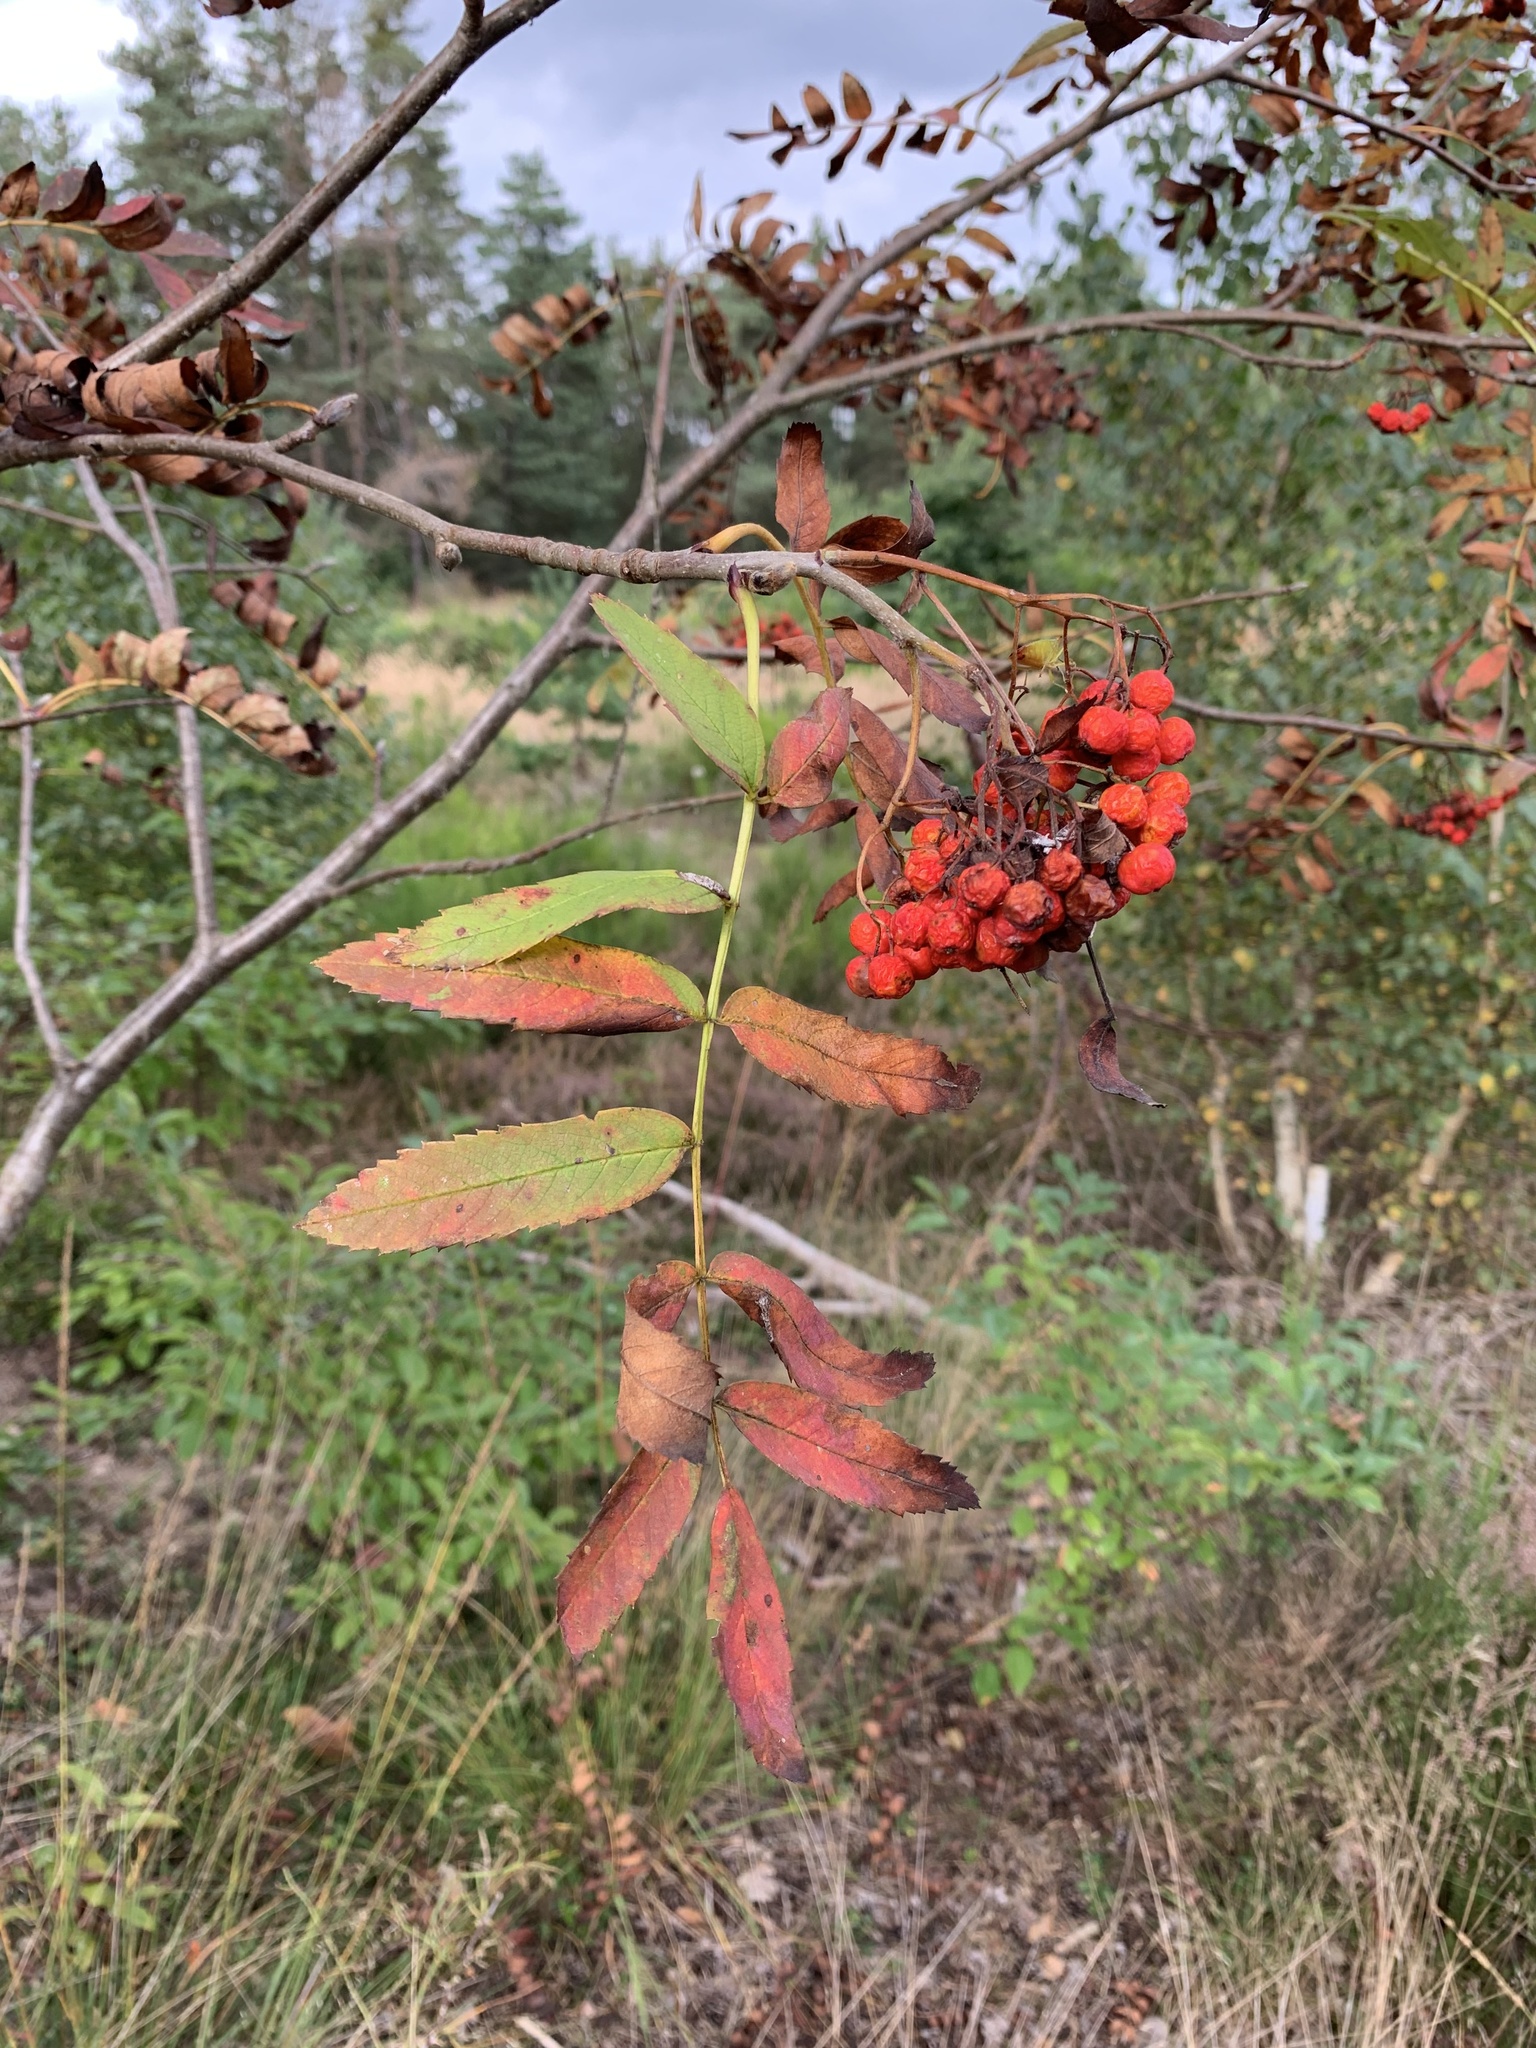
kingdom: Plantae
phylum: Tracheophyta
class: Magnoliopsida
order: Rosales
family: Rosaceae
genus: Sorbus
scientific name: Sorbus aucuparia
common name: Rowan
